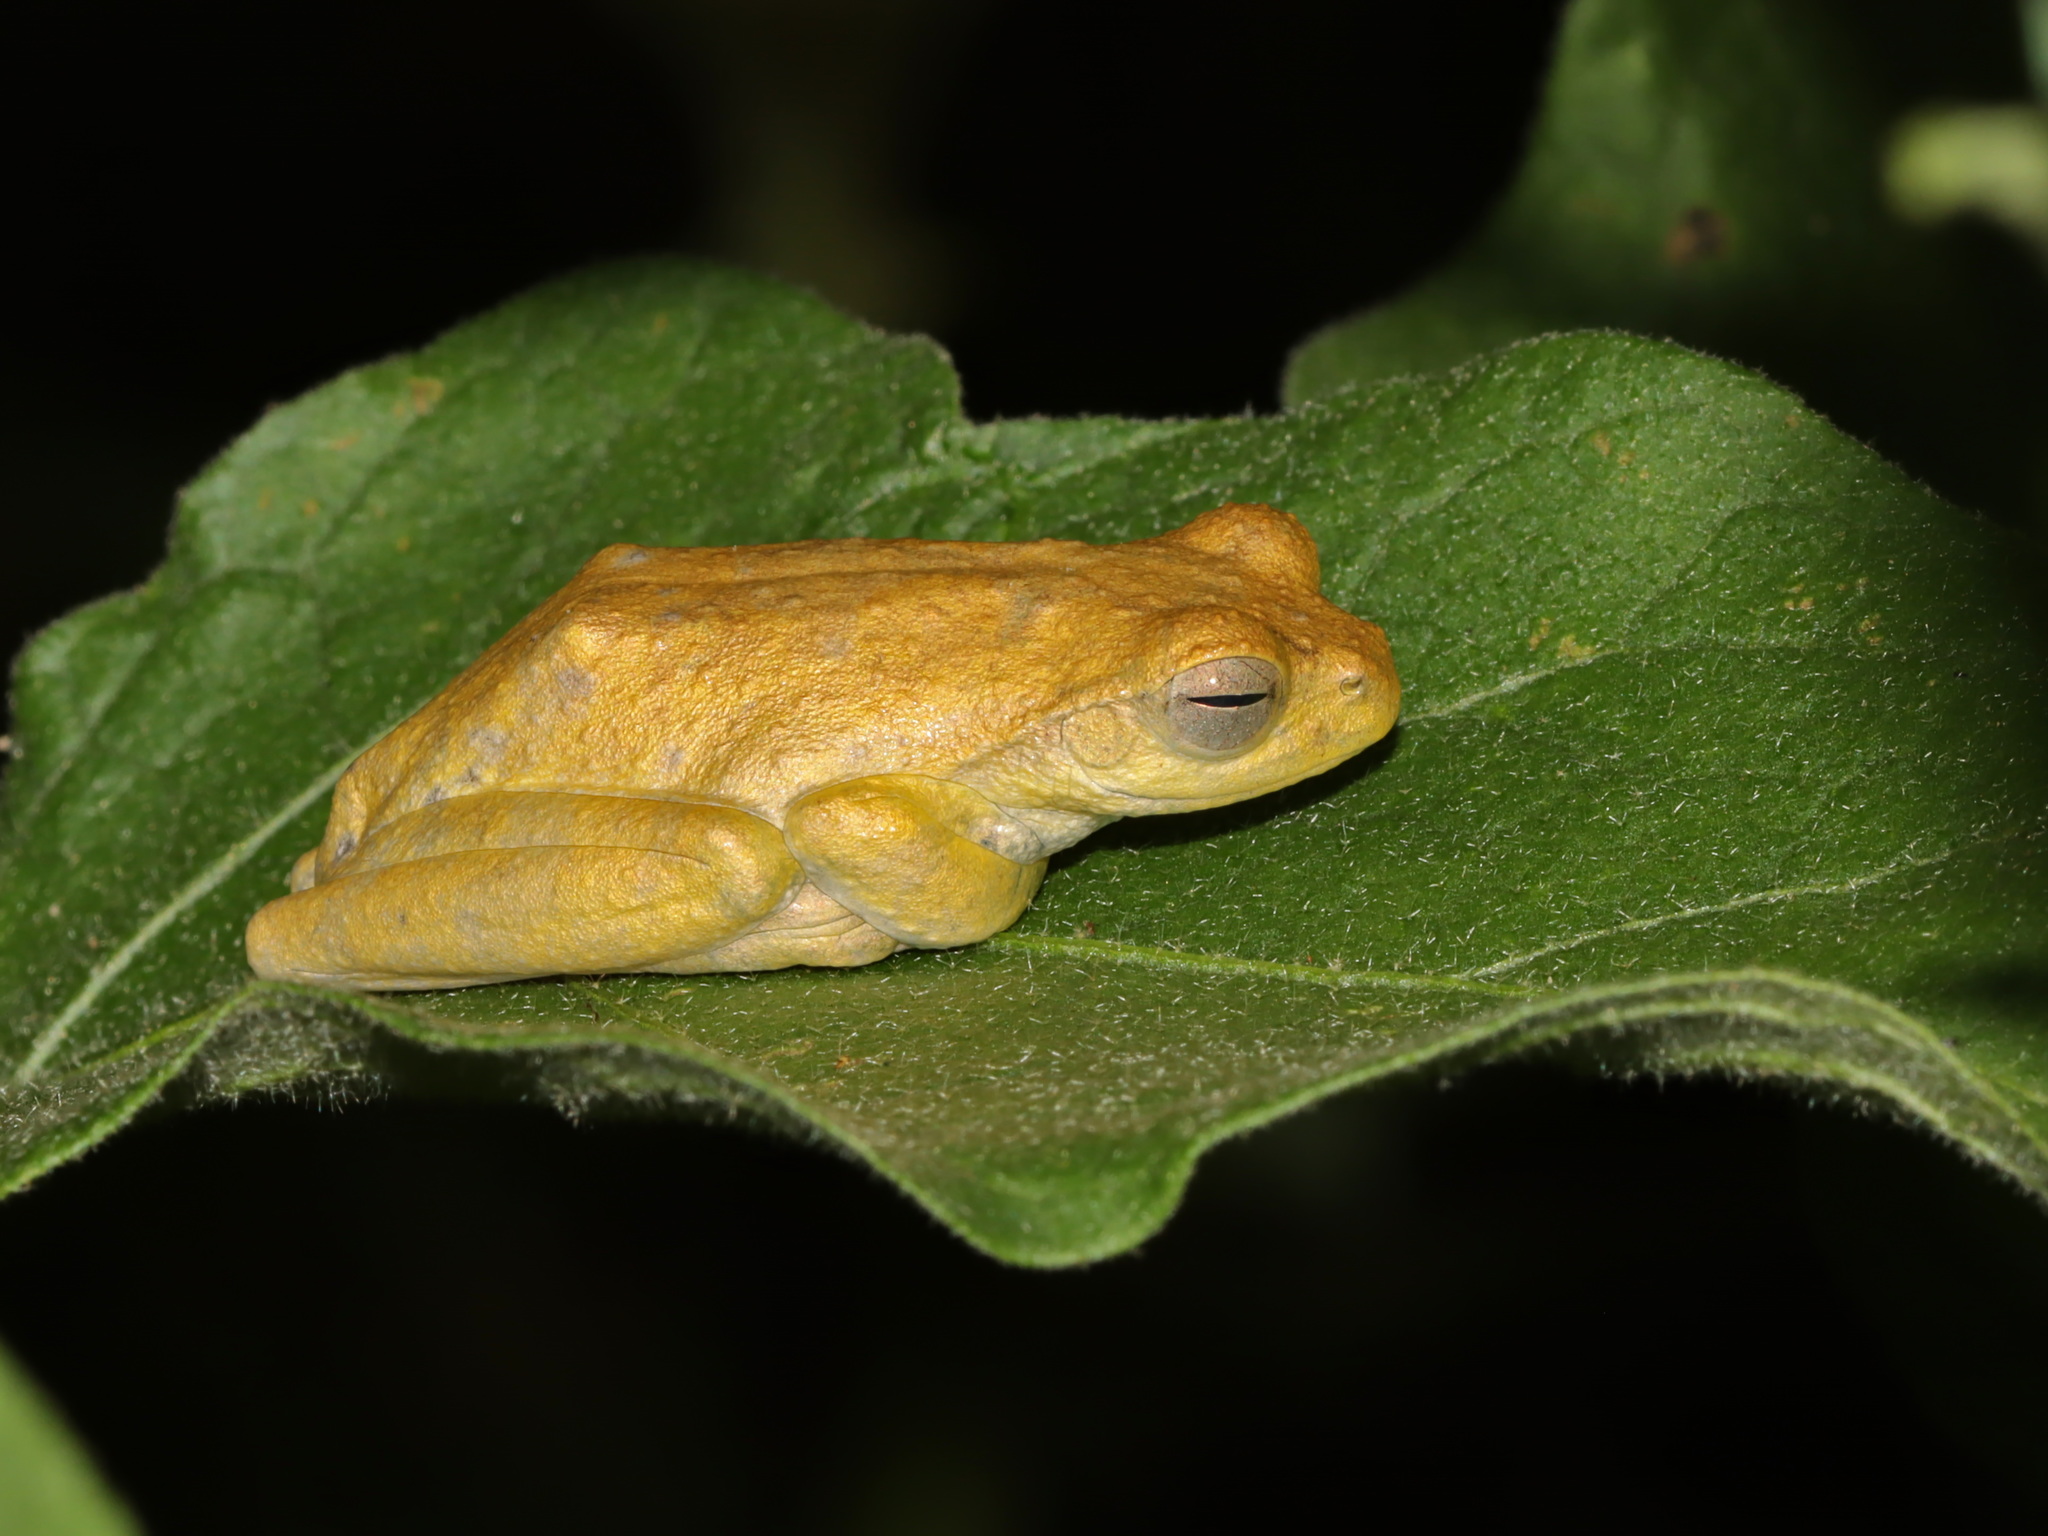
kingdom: Animalia
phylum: Chordata
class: Amphibia
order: Anura
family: Rhacophoridae
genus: Chiromantis
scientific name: Chiromantis nongkhorensis
